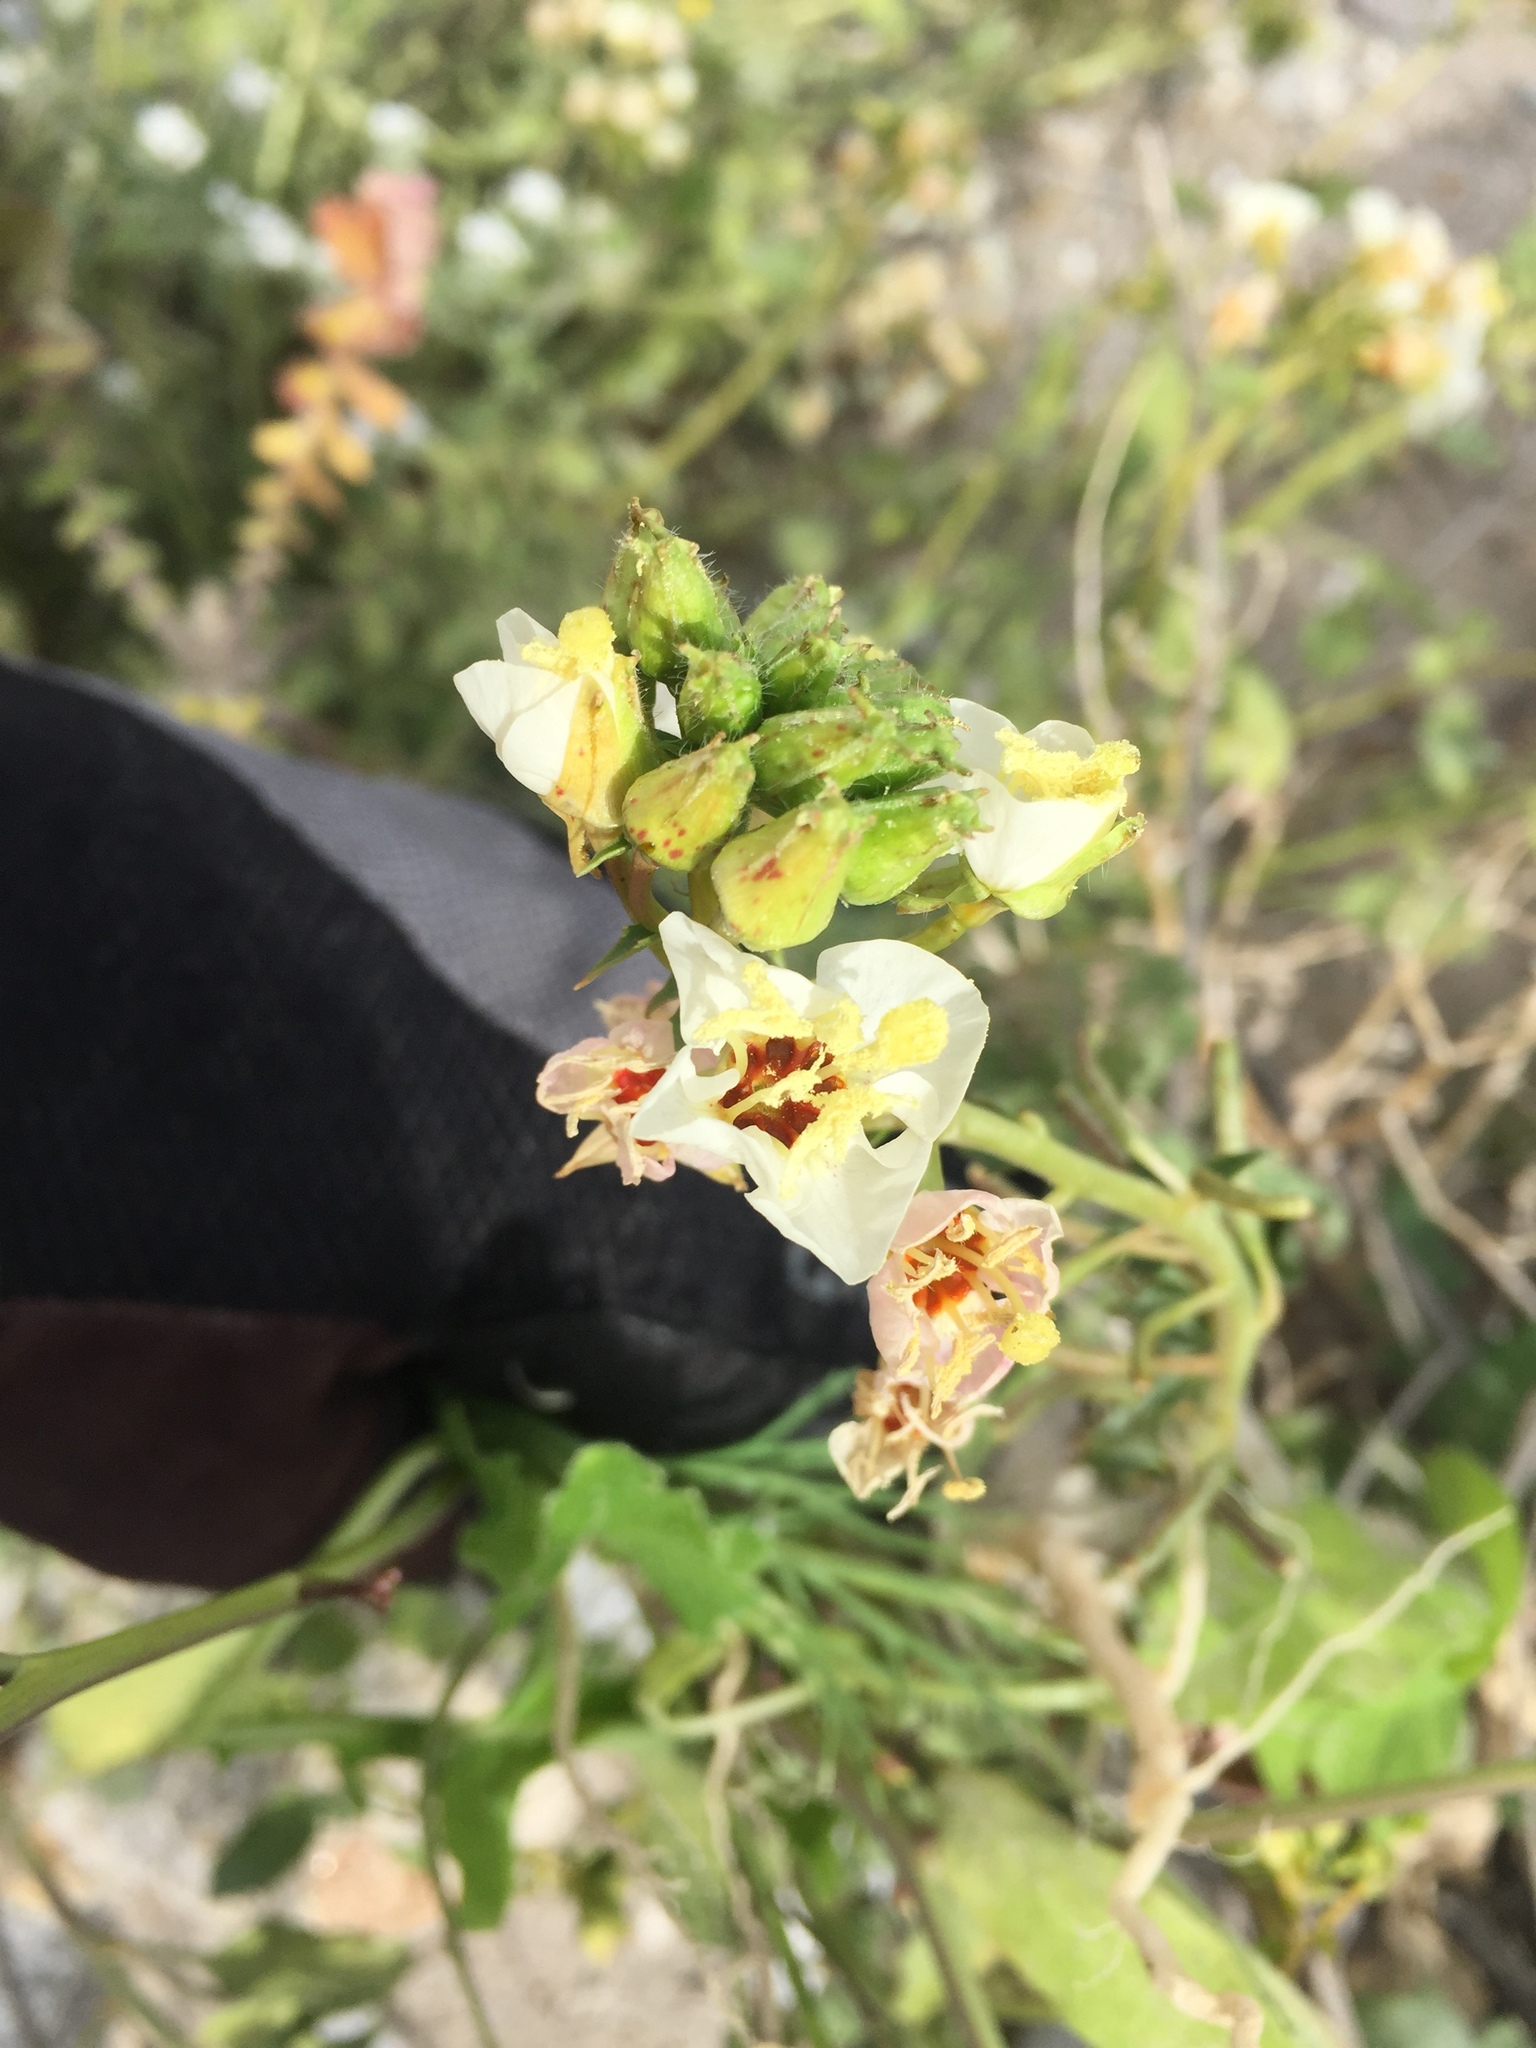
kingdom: Plantae
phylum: Tracheophyta
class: Magnoliopsida
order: Myrtales
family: Onagraceae
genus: Chylismia
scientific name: Chylismia claviformis
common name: Browneyes
